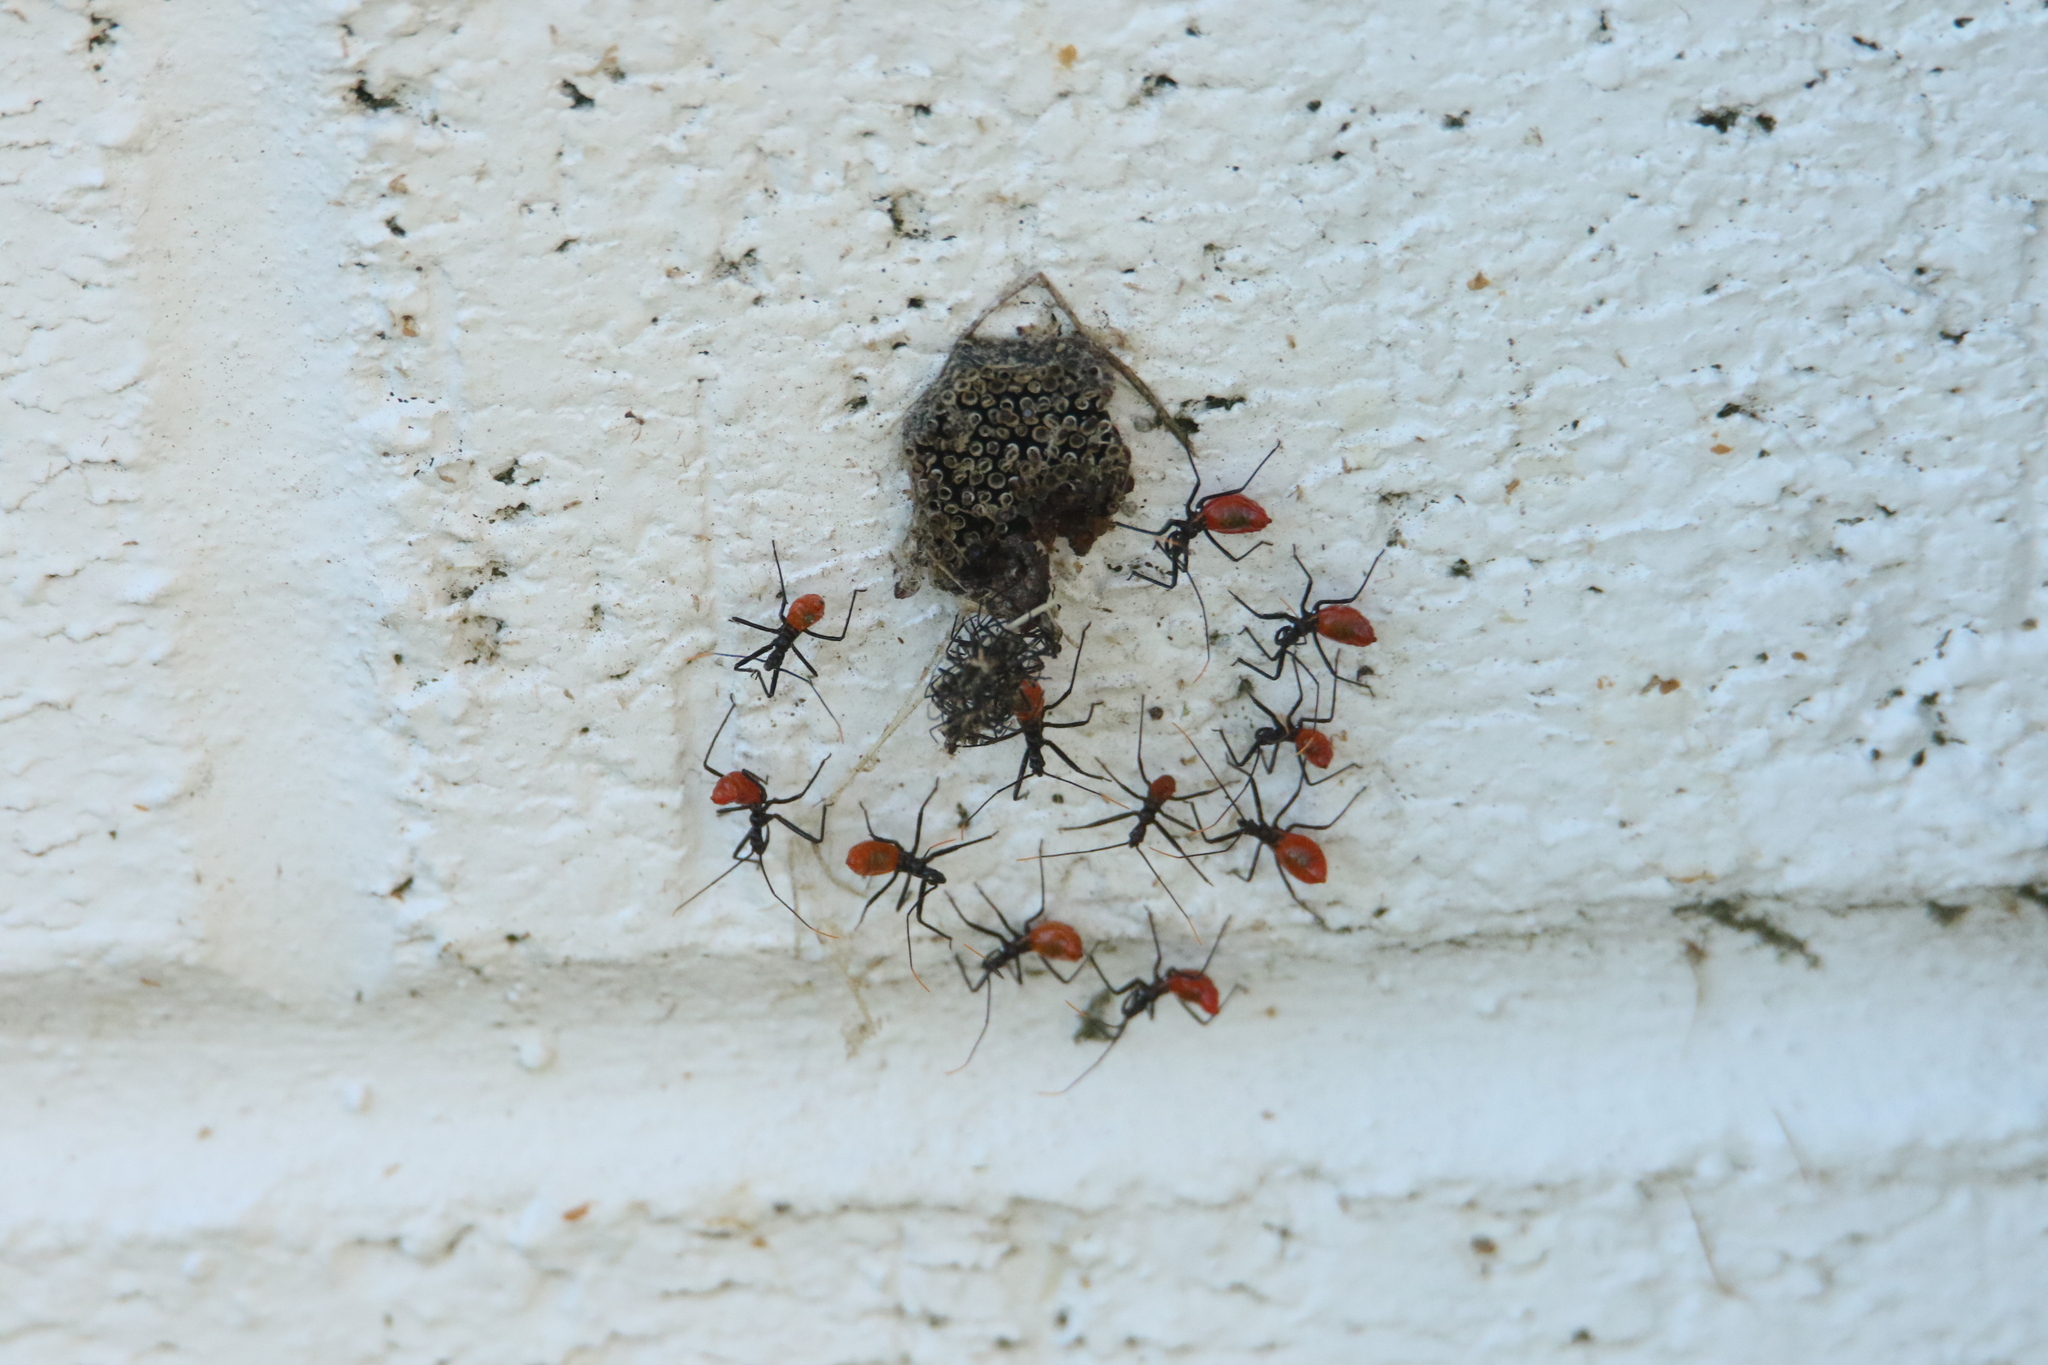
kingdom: Animalia
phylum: Arthropoda
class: Insecta
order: Hemiptera
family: Reduviidae
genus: Arilus
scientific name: Arilus cristatus
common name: North american wheel bug
